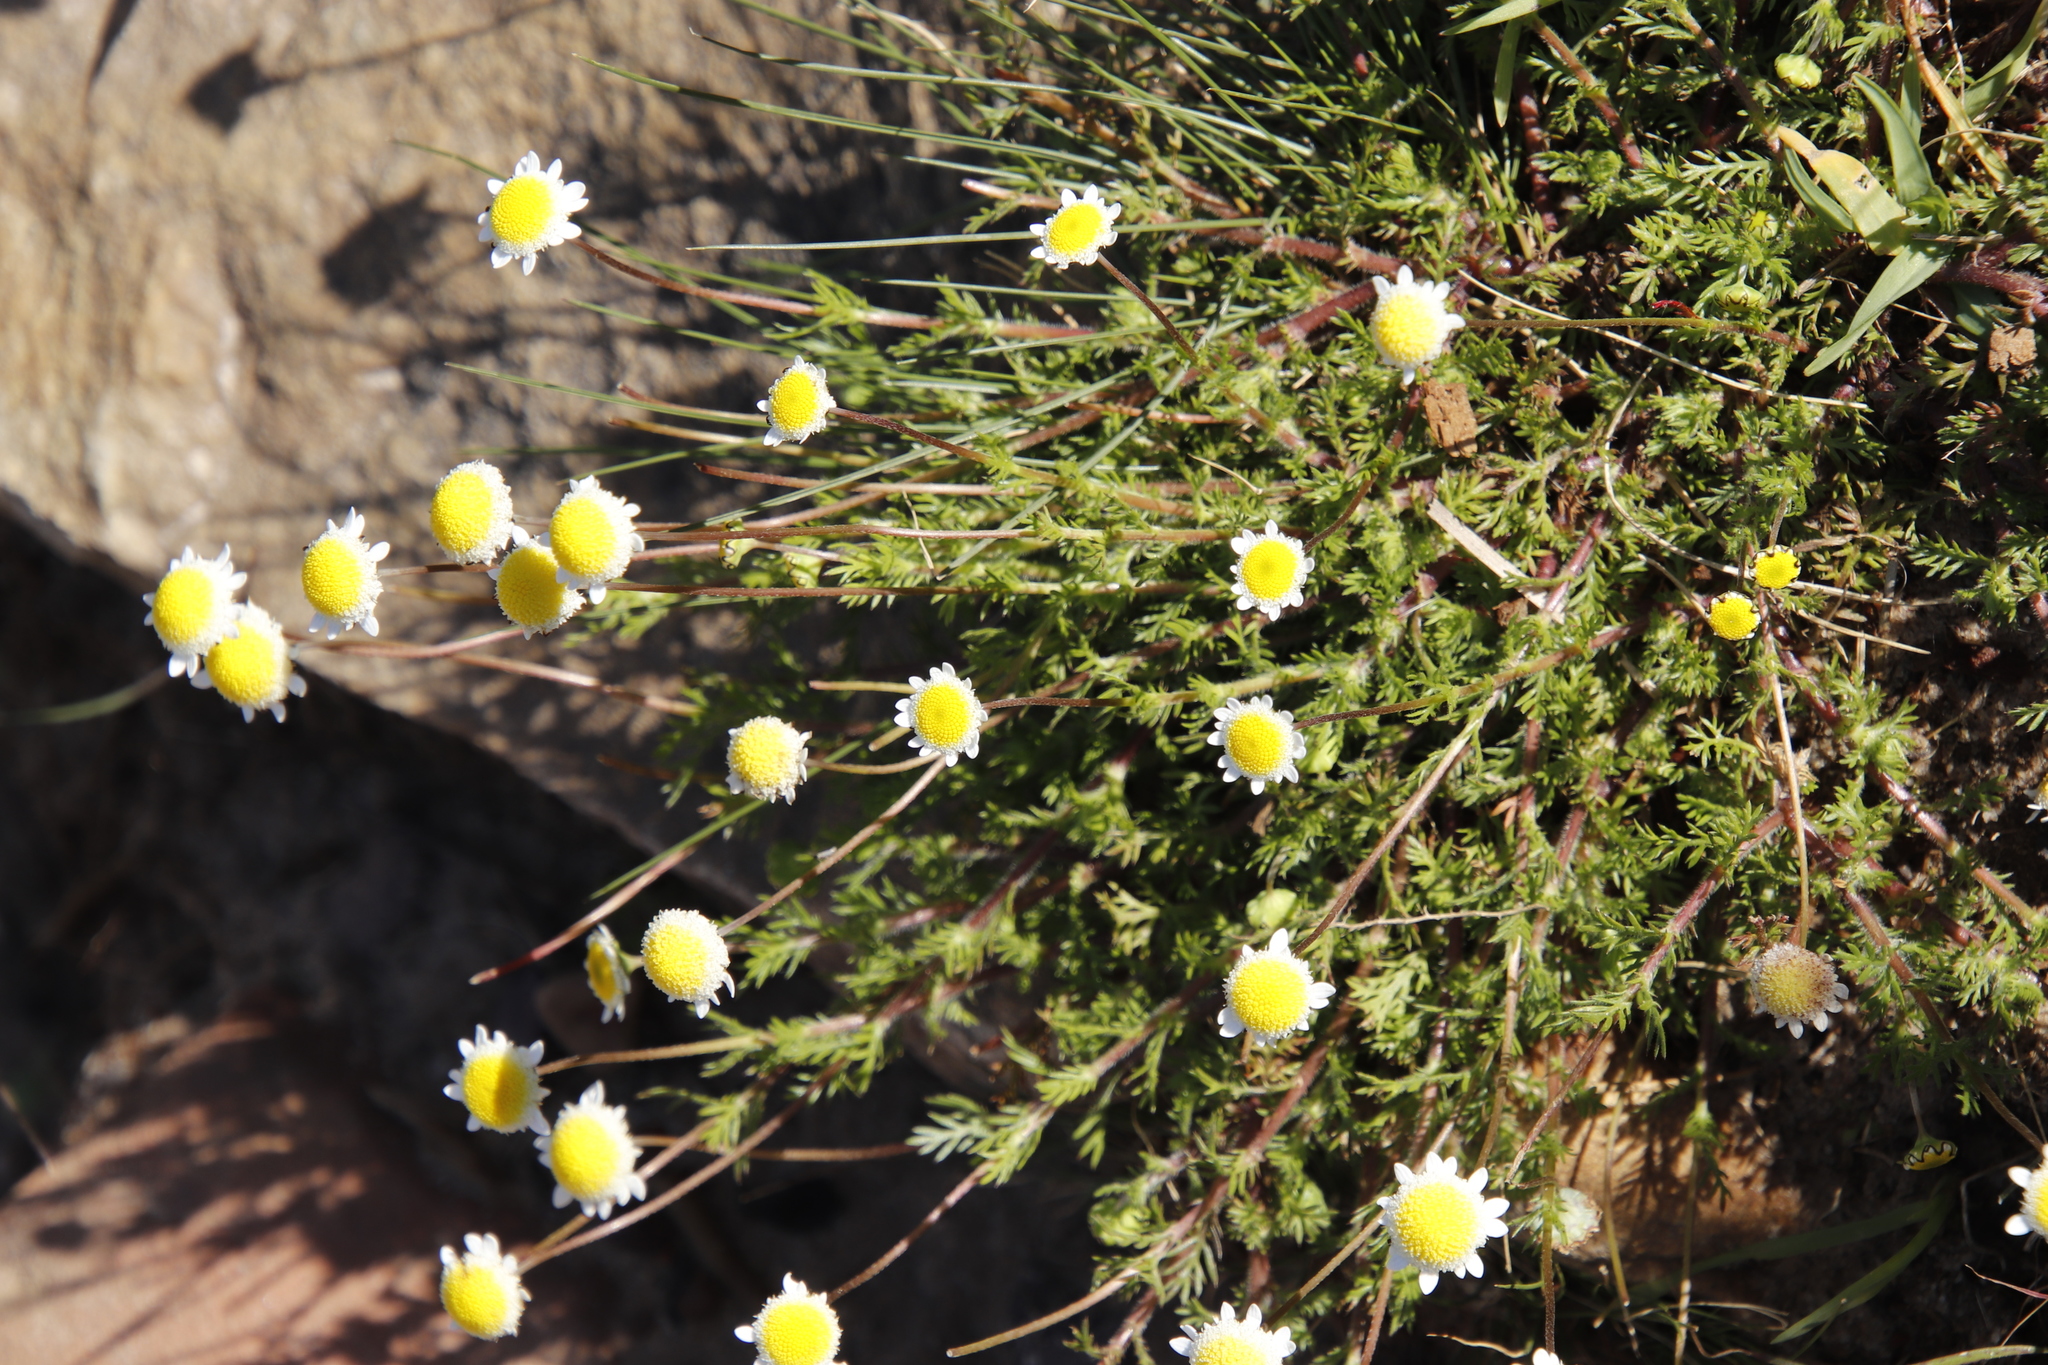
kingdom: Plantae
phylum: Tracheophyta
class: Magnoliopsida
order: Asterales
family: Asteraceae
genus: Cotula
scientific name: Cotula turbinata
